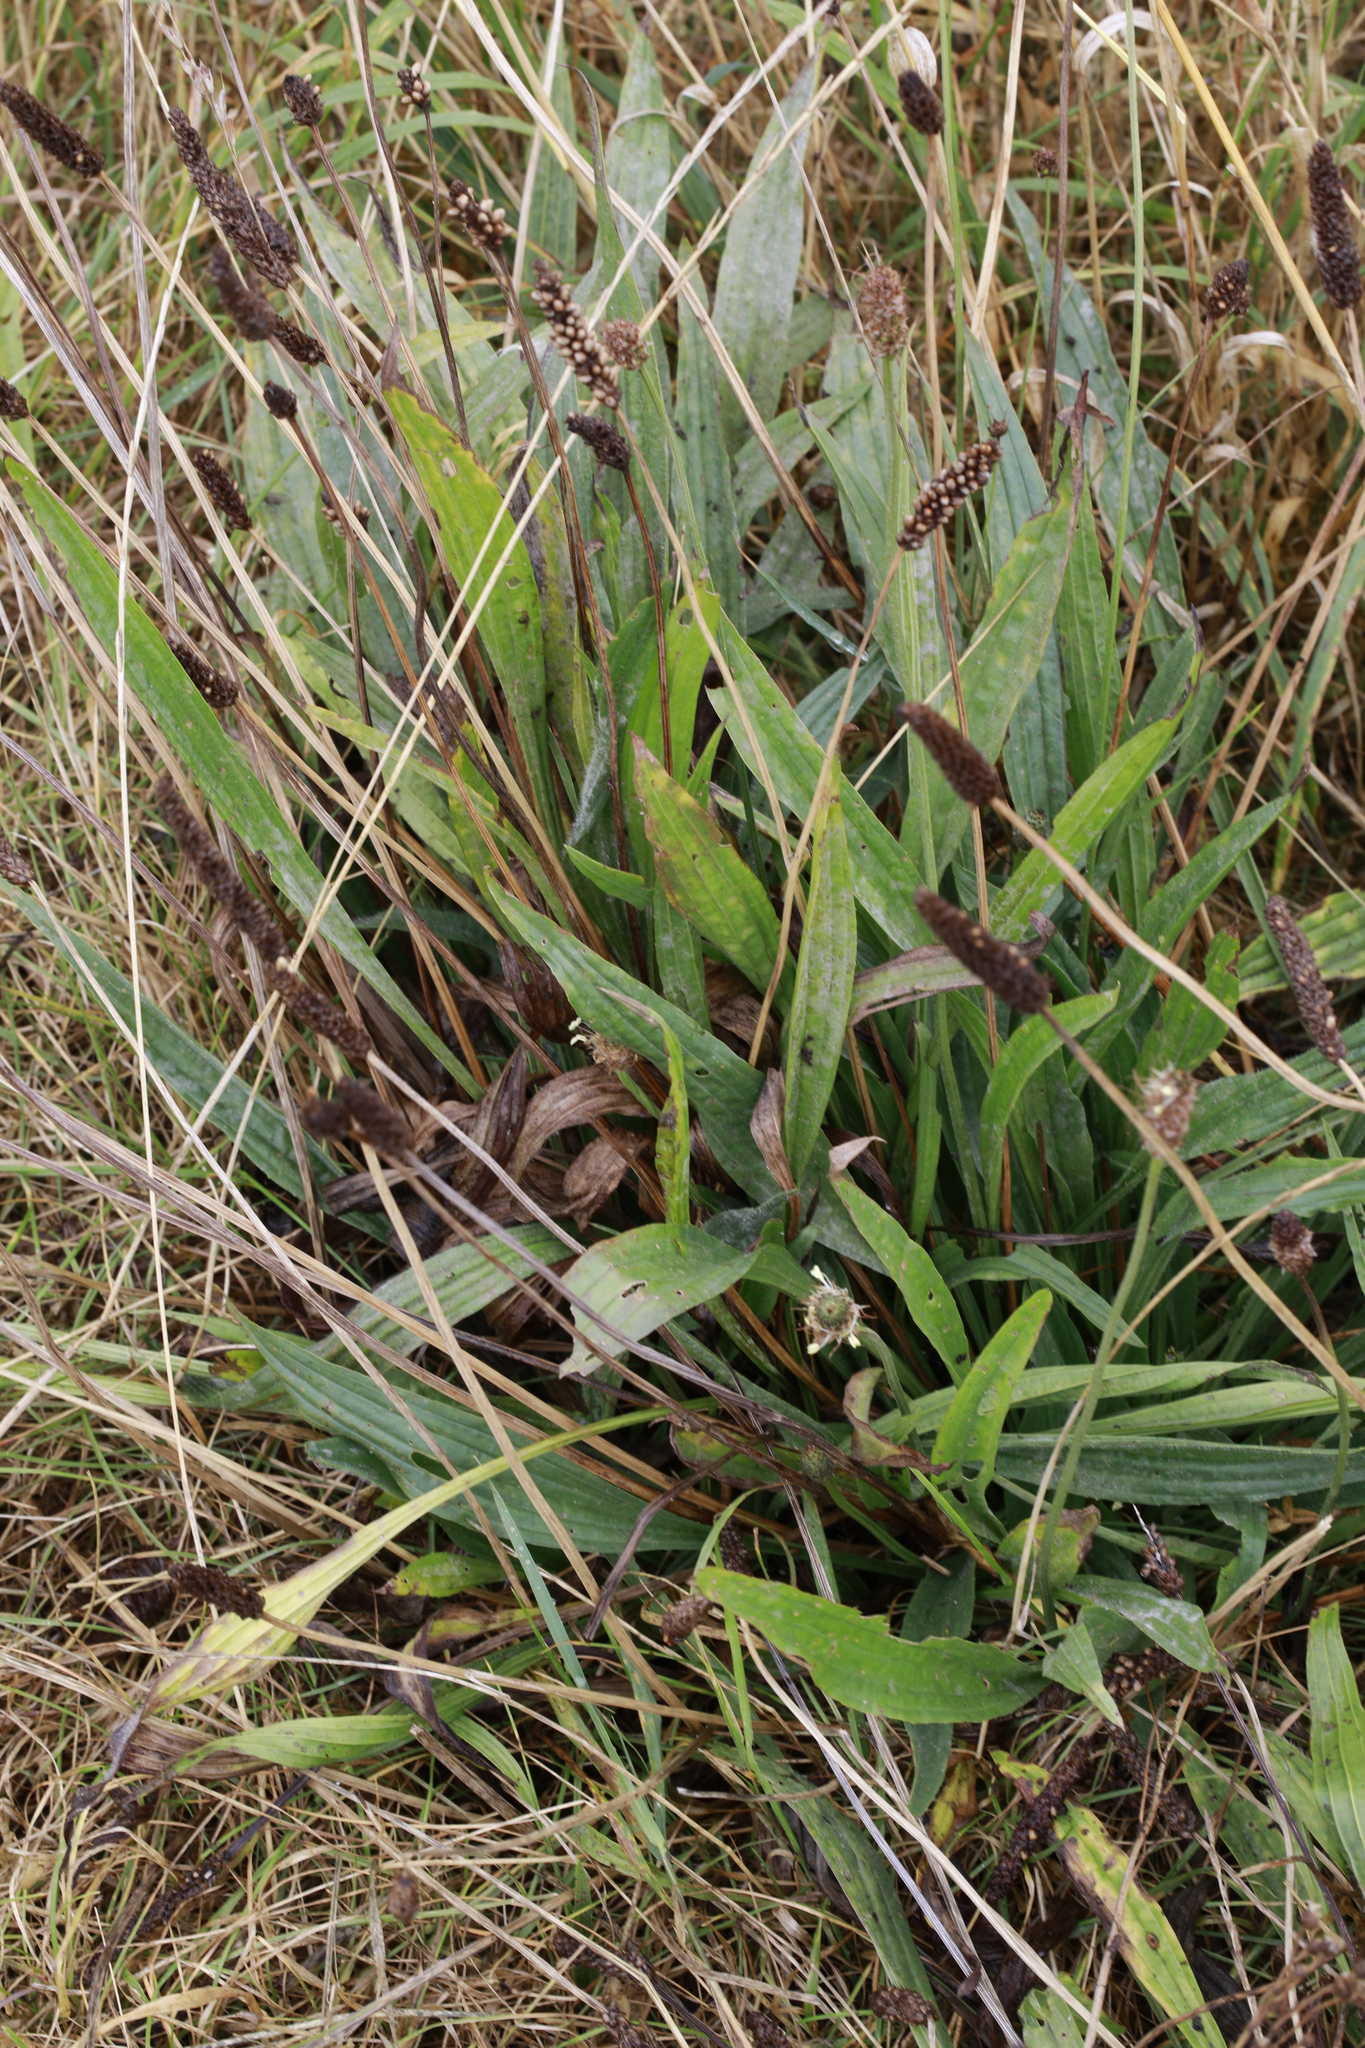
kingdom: Plantae
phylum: Tracheophyta
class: Magnoliopsida
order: Lamiales
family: Plantaginaceae
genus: Plantago
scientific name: Plantago lanceolata
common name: Ribwort plantain
